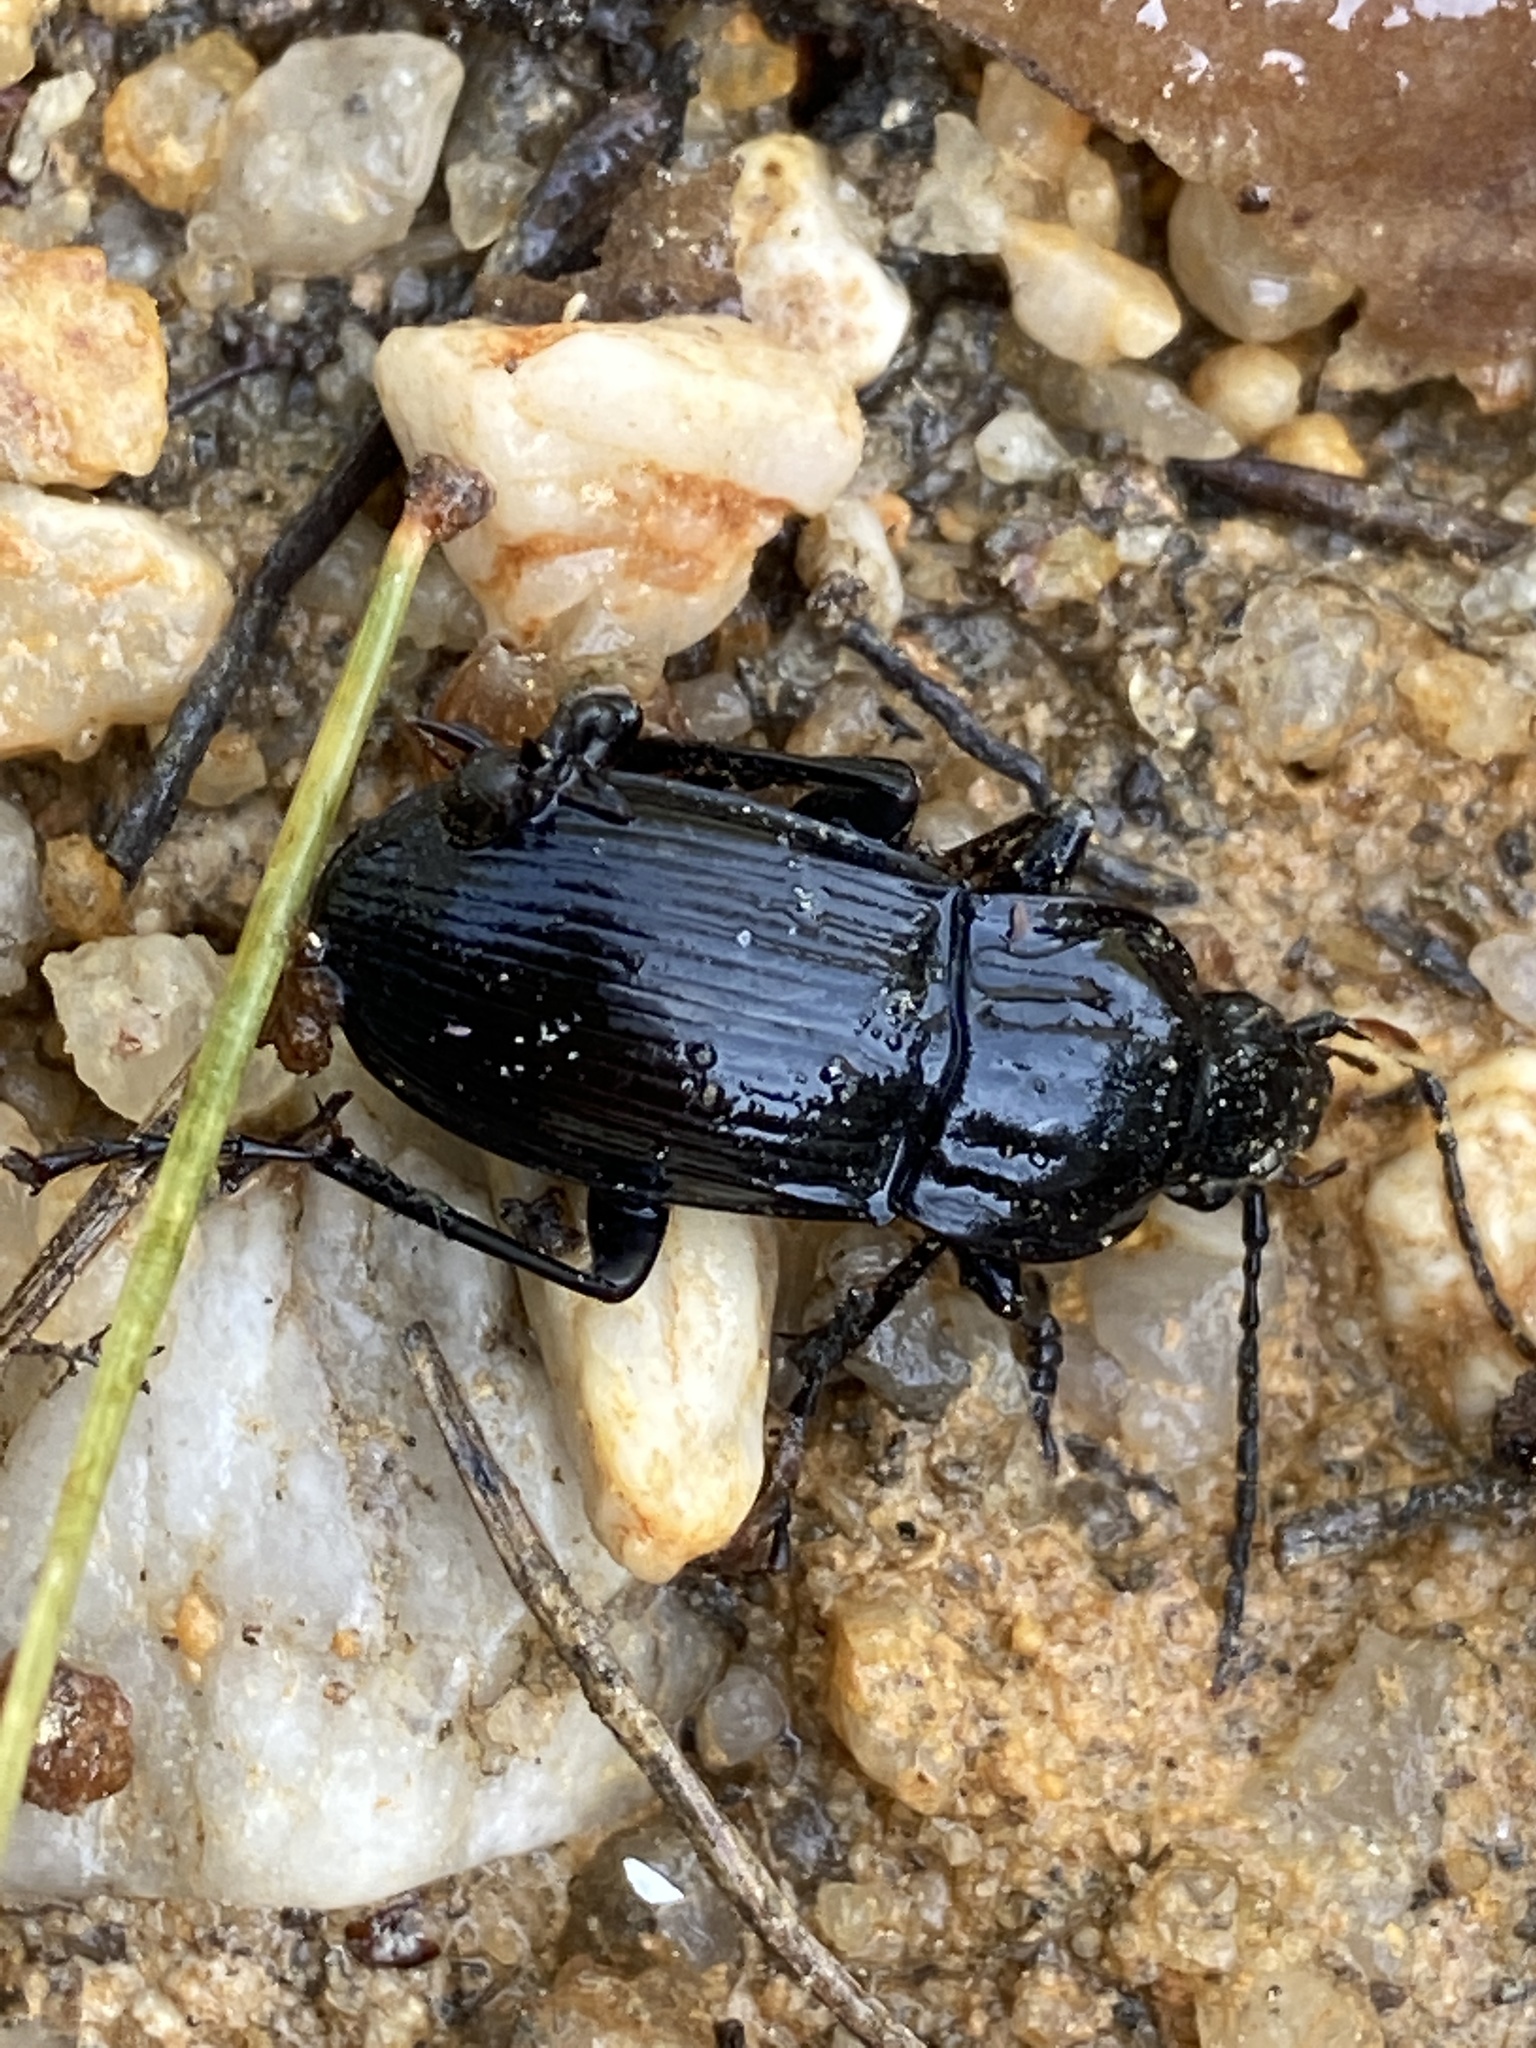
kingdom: Animalia
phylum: Arthropoda
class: Insecta
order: Coleoptera
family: Carabidae
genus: Abax
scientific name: Abax parallelepipedus
